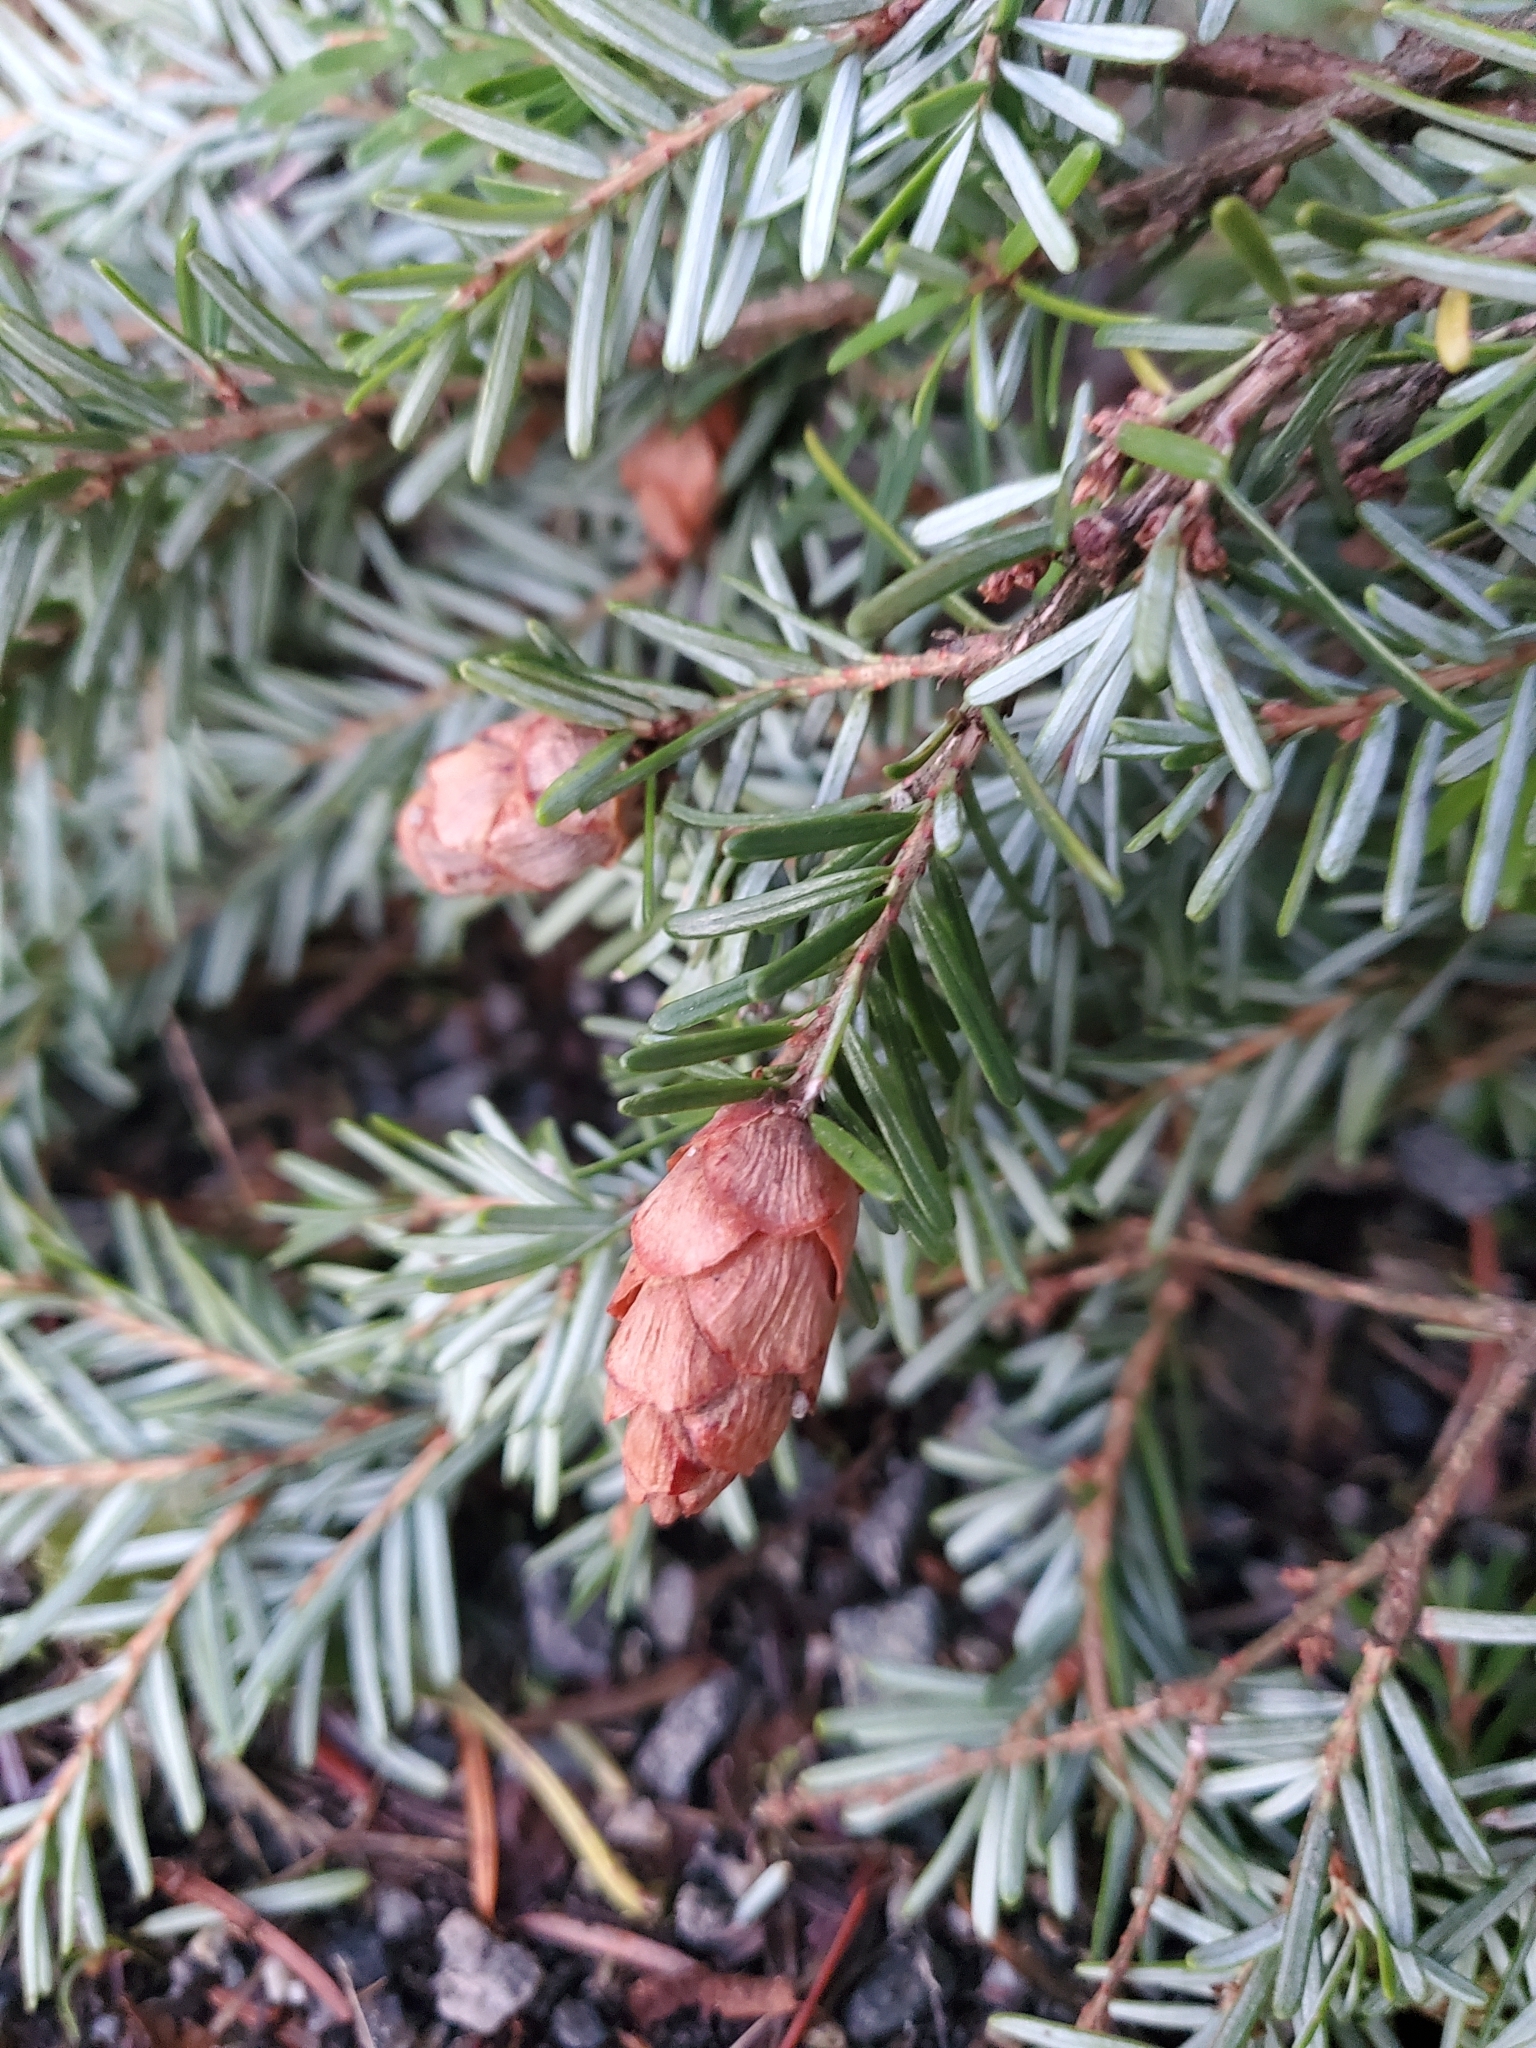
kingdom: Plantae
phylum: Tracheophyta
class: Pinopsida
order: Pinales
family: Pinaceae
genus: Tsuga
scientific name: Tsuga heterophylla
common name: Western hemlock
